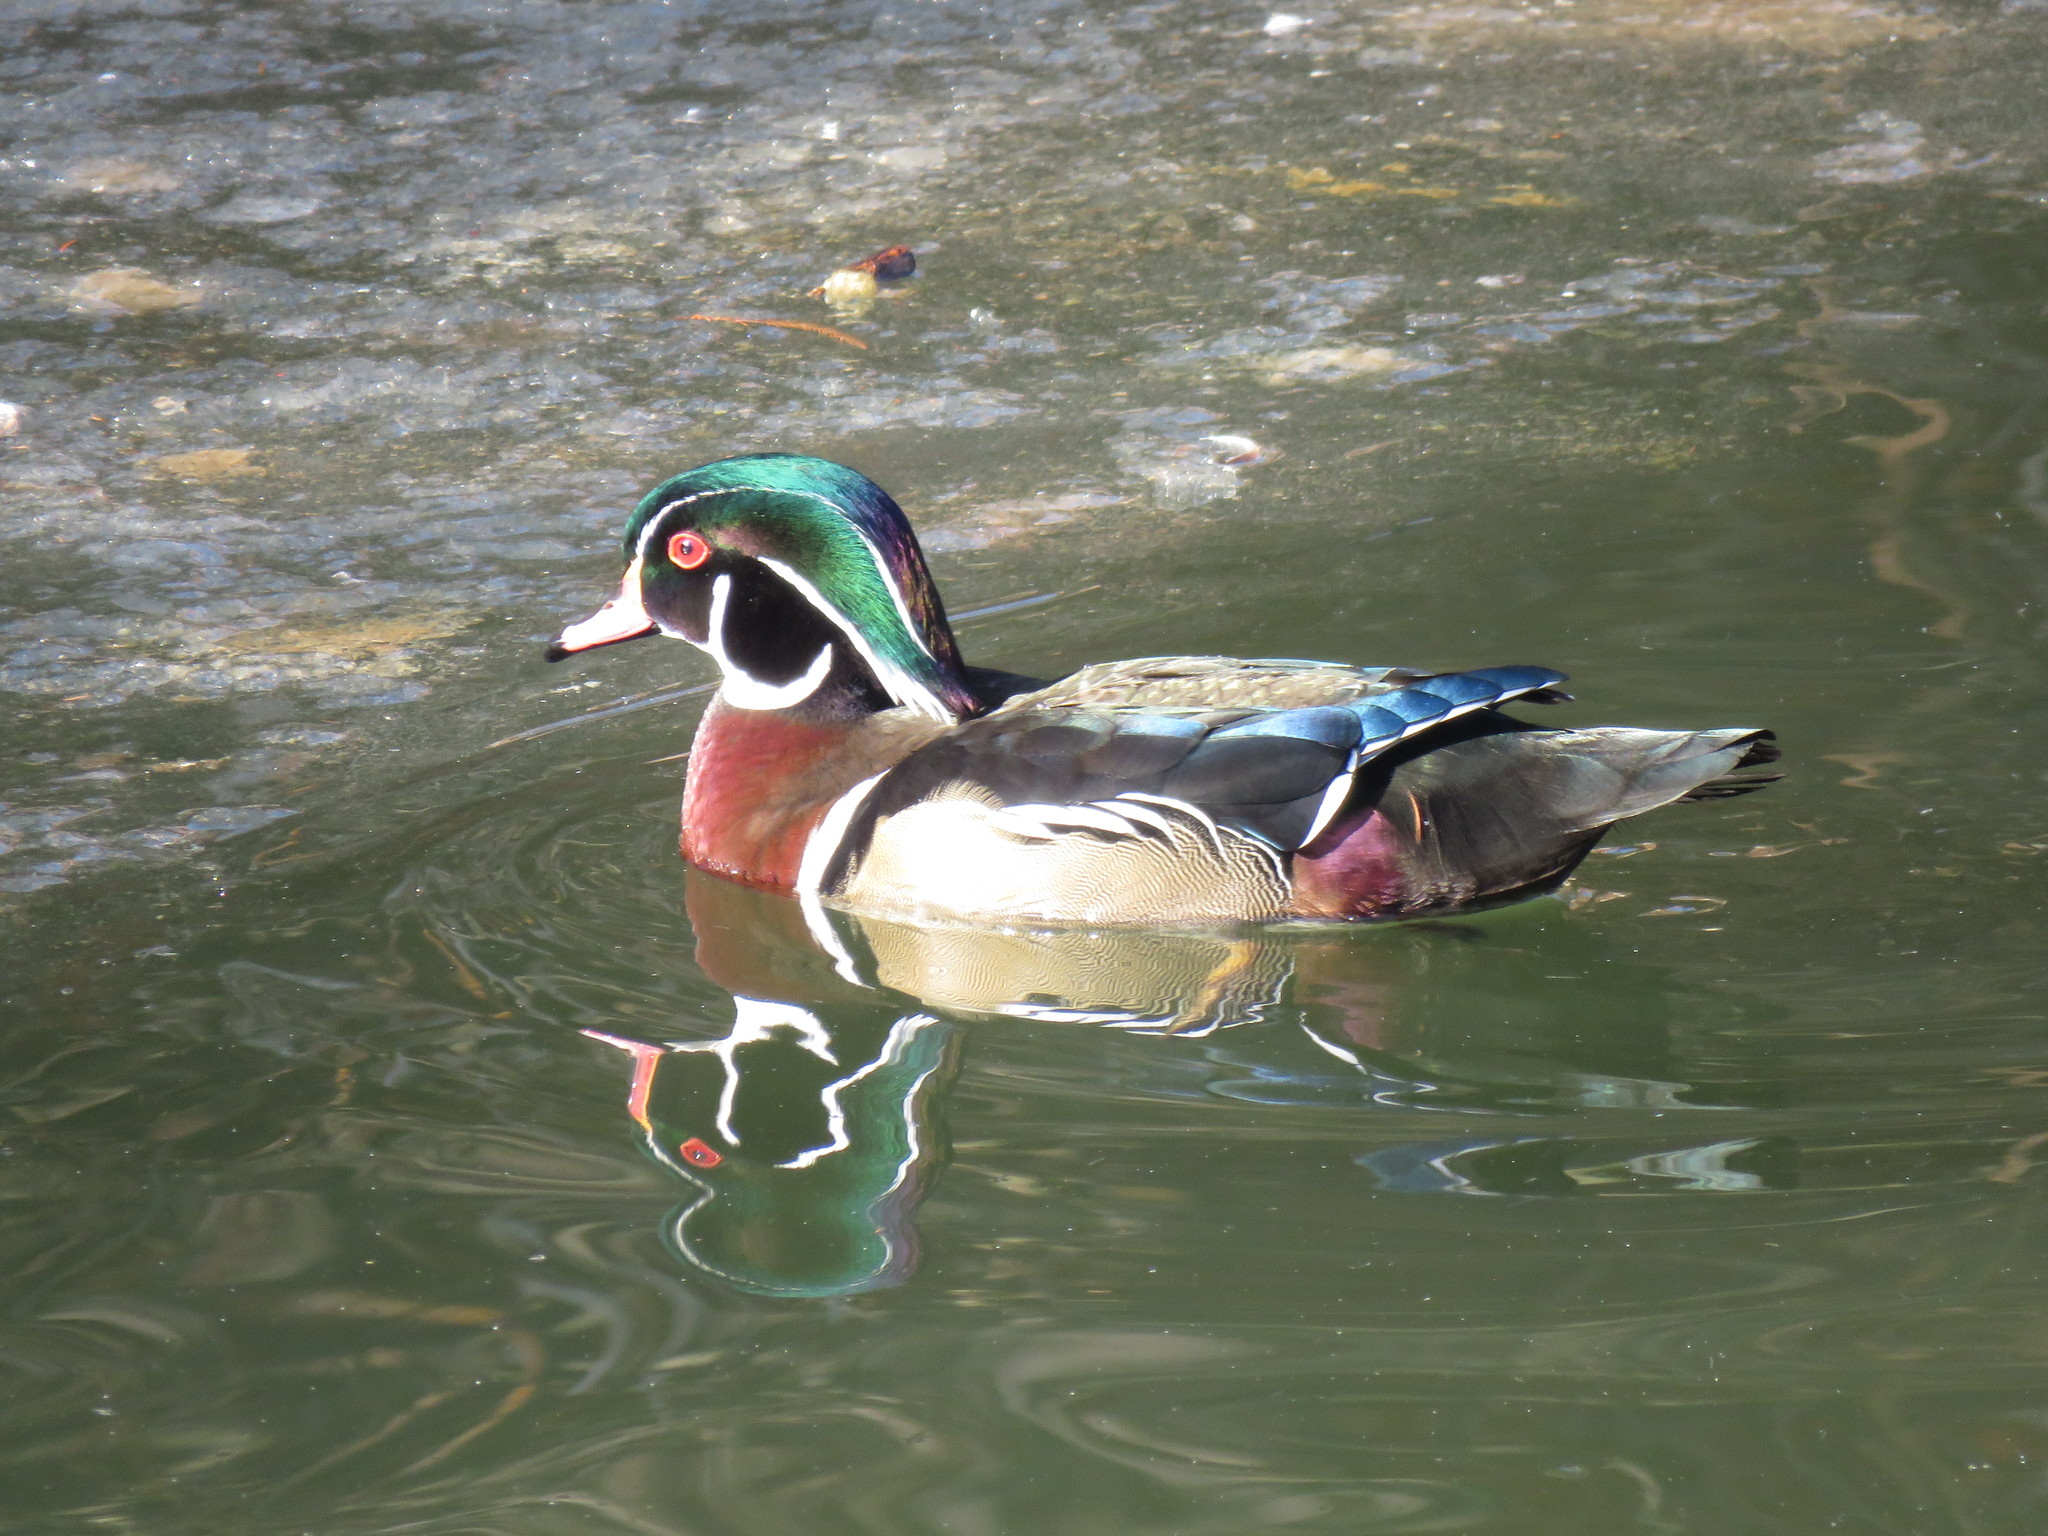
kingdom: Animalia
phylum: Chordata
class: Aves
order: Anseriformes
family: Anatidae
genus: Aix
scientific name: Aix sponsa
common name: Wood duck
